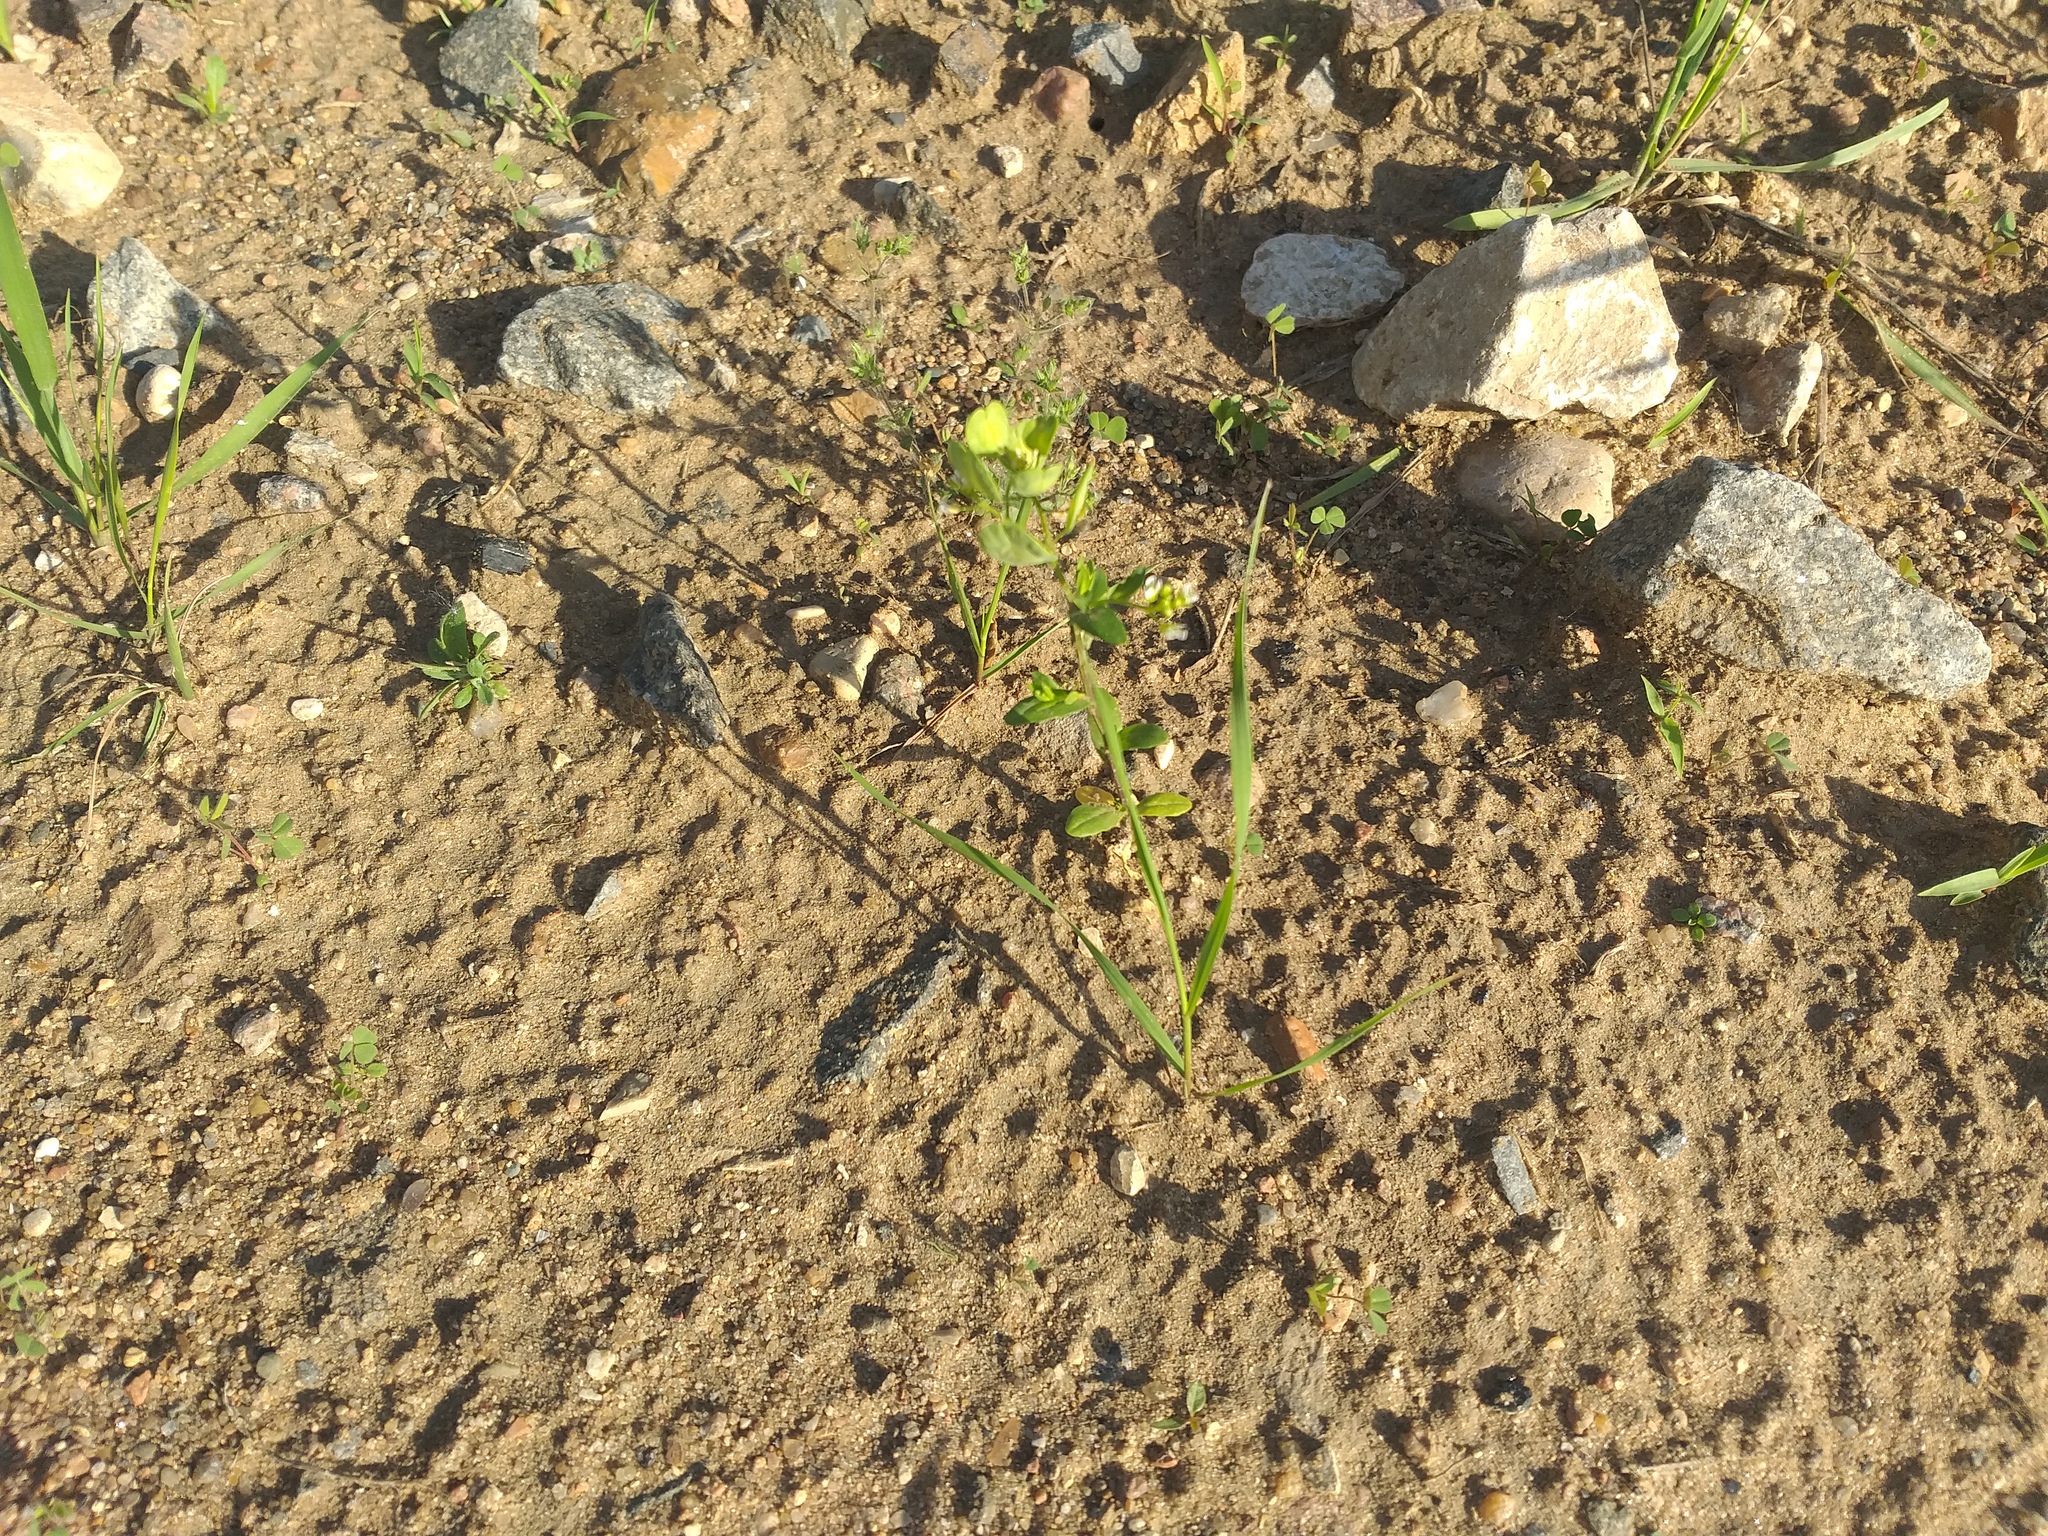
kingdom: Plantae
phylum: Tracheophyta
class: Magnoliopsida
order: Brassicales
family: Brassicaceae
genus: Thlaspi
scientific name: Thlaspi arvense
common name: Field pennycress
